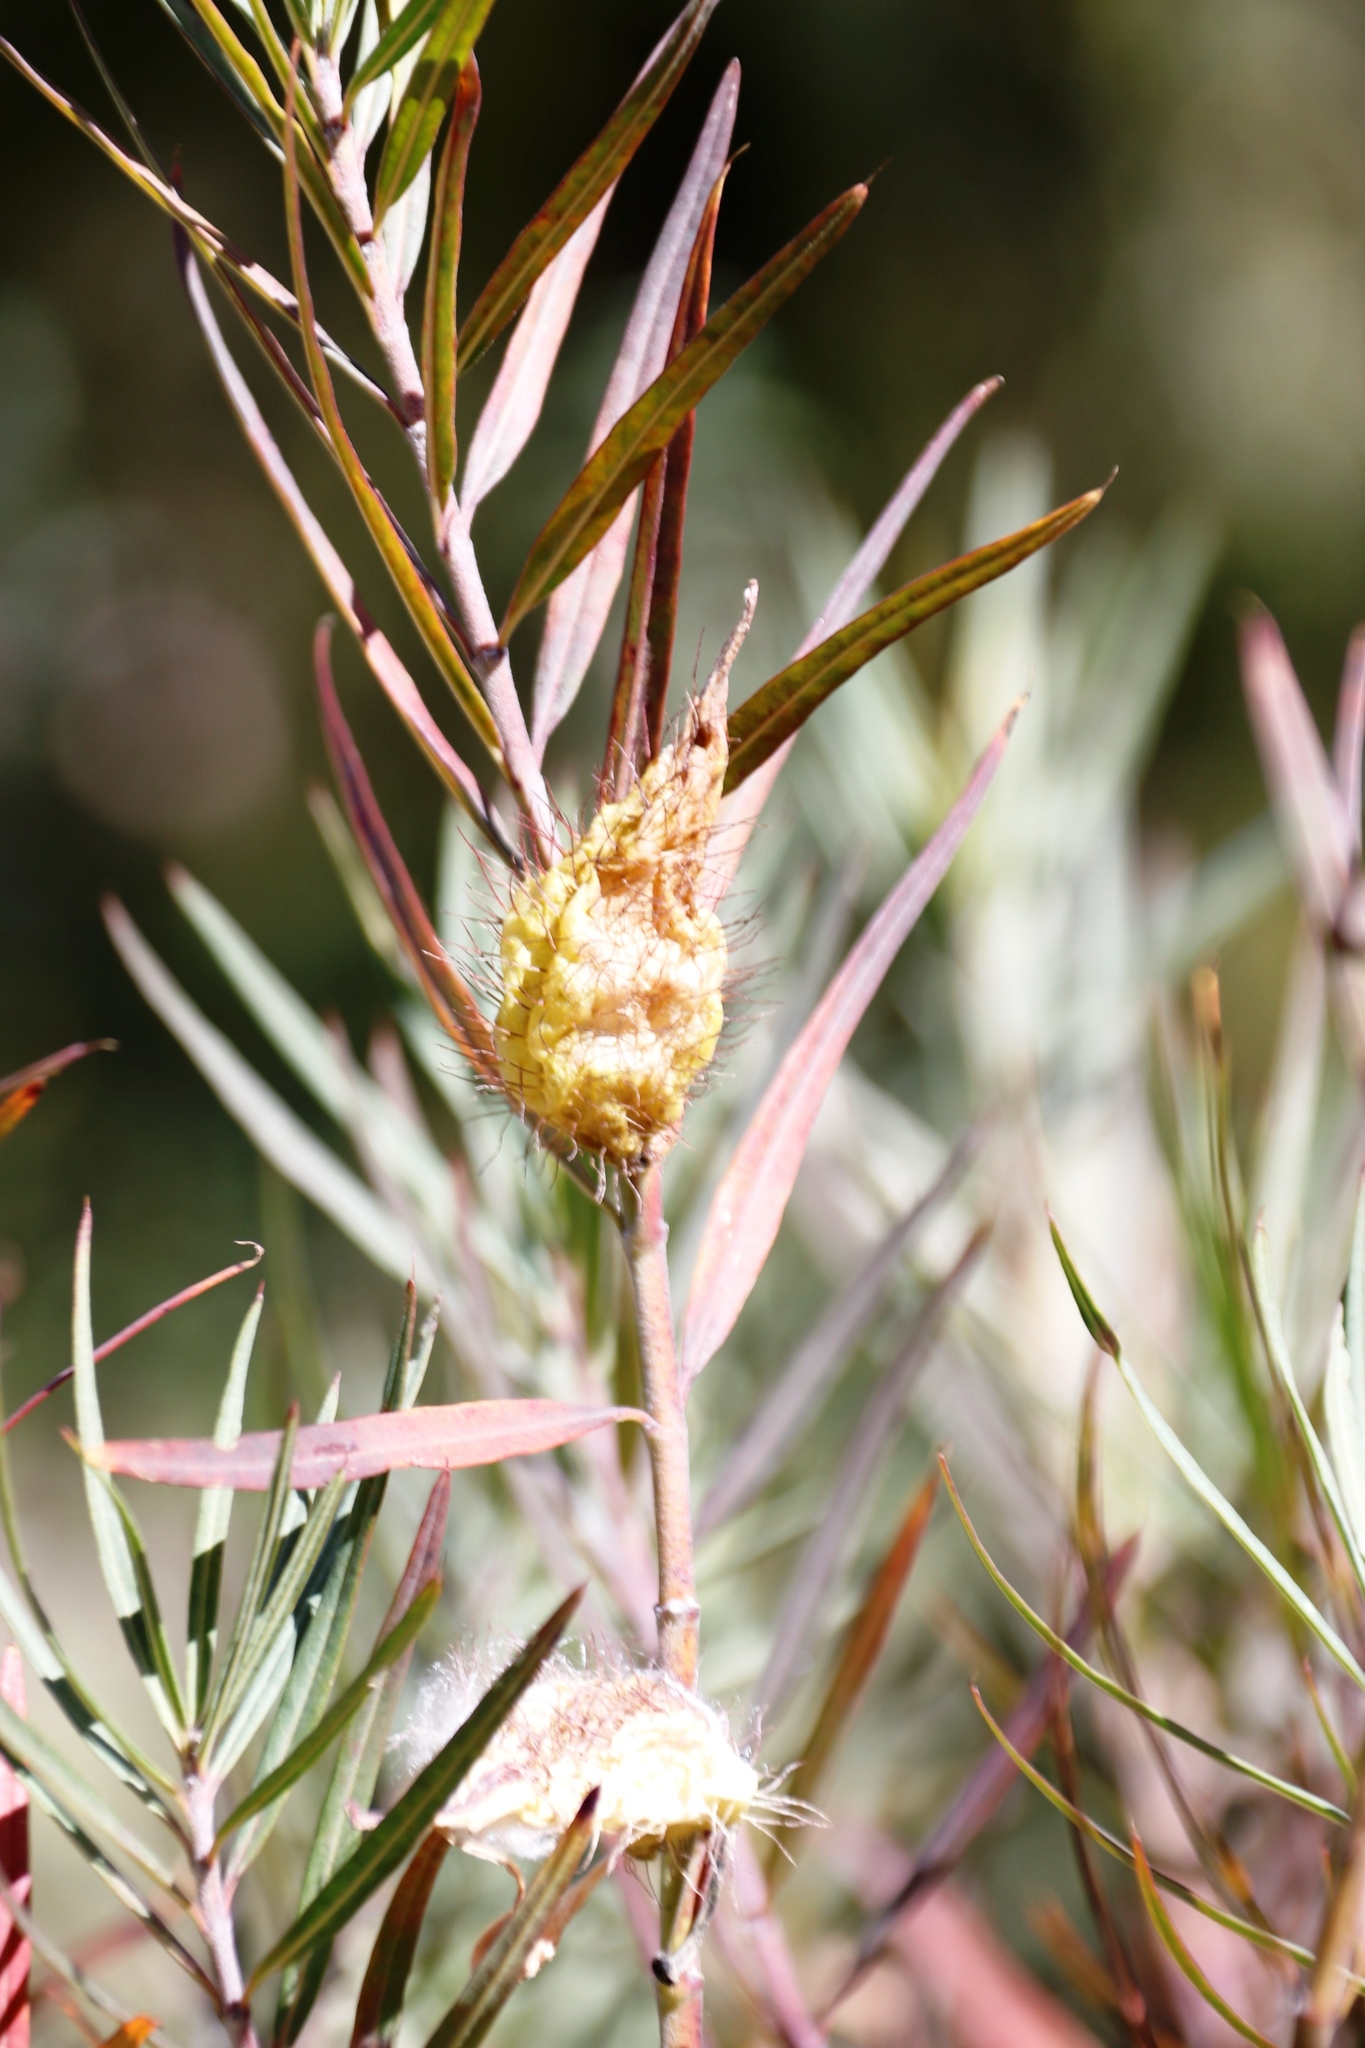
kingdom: Plantae
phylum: Tracheophyta
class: Magnoliopsida
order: Gentianales
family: Apocynaceae
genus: Gomphocarpus
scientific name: Gomphocarpus fruticosus
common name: Milkweed
